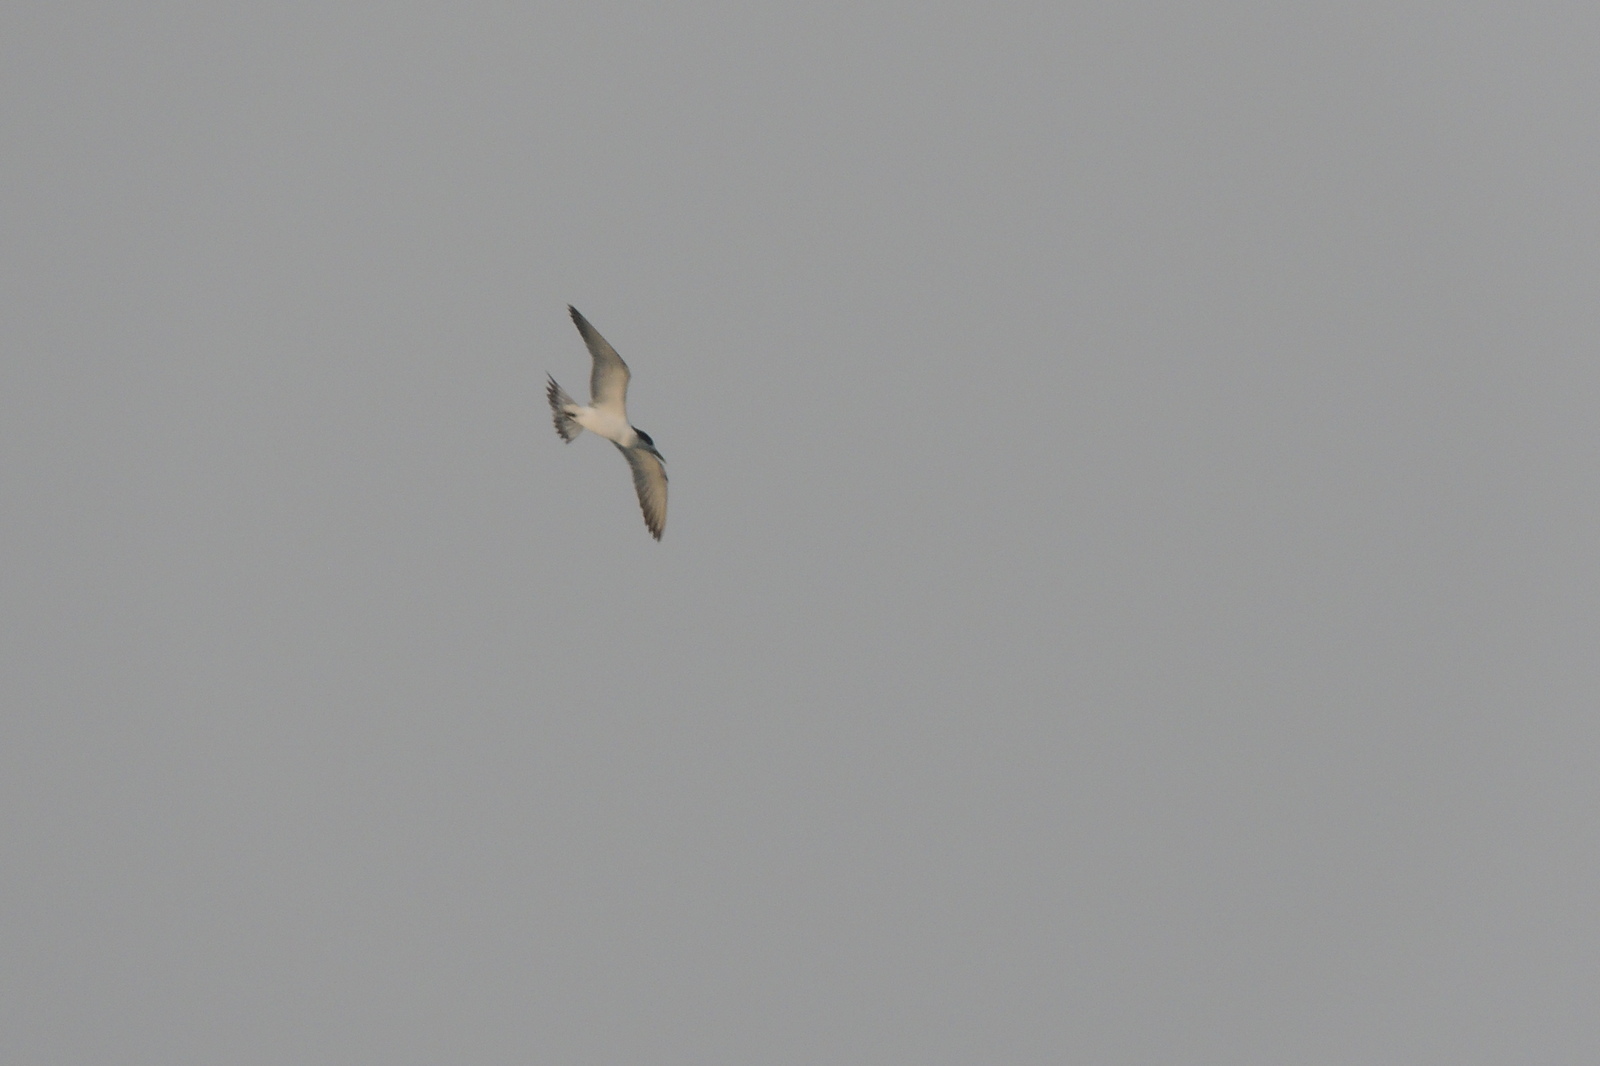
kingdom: Animalia
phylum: Chordata
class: Aves
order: Charadriiformes
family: Laridae
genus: Thalasseus
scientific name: Thalasseus bergii
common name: Greater crested tern
